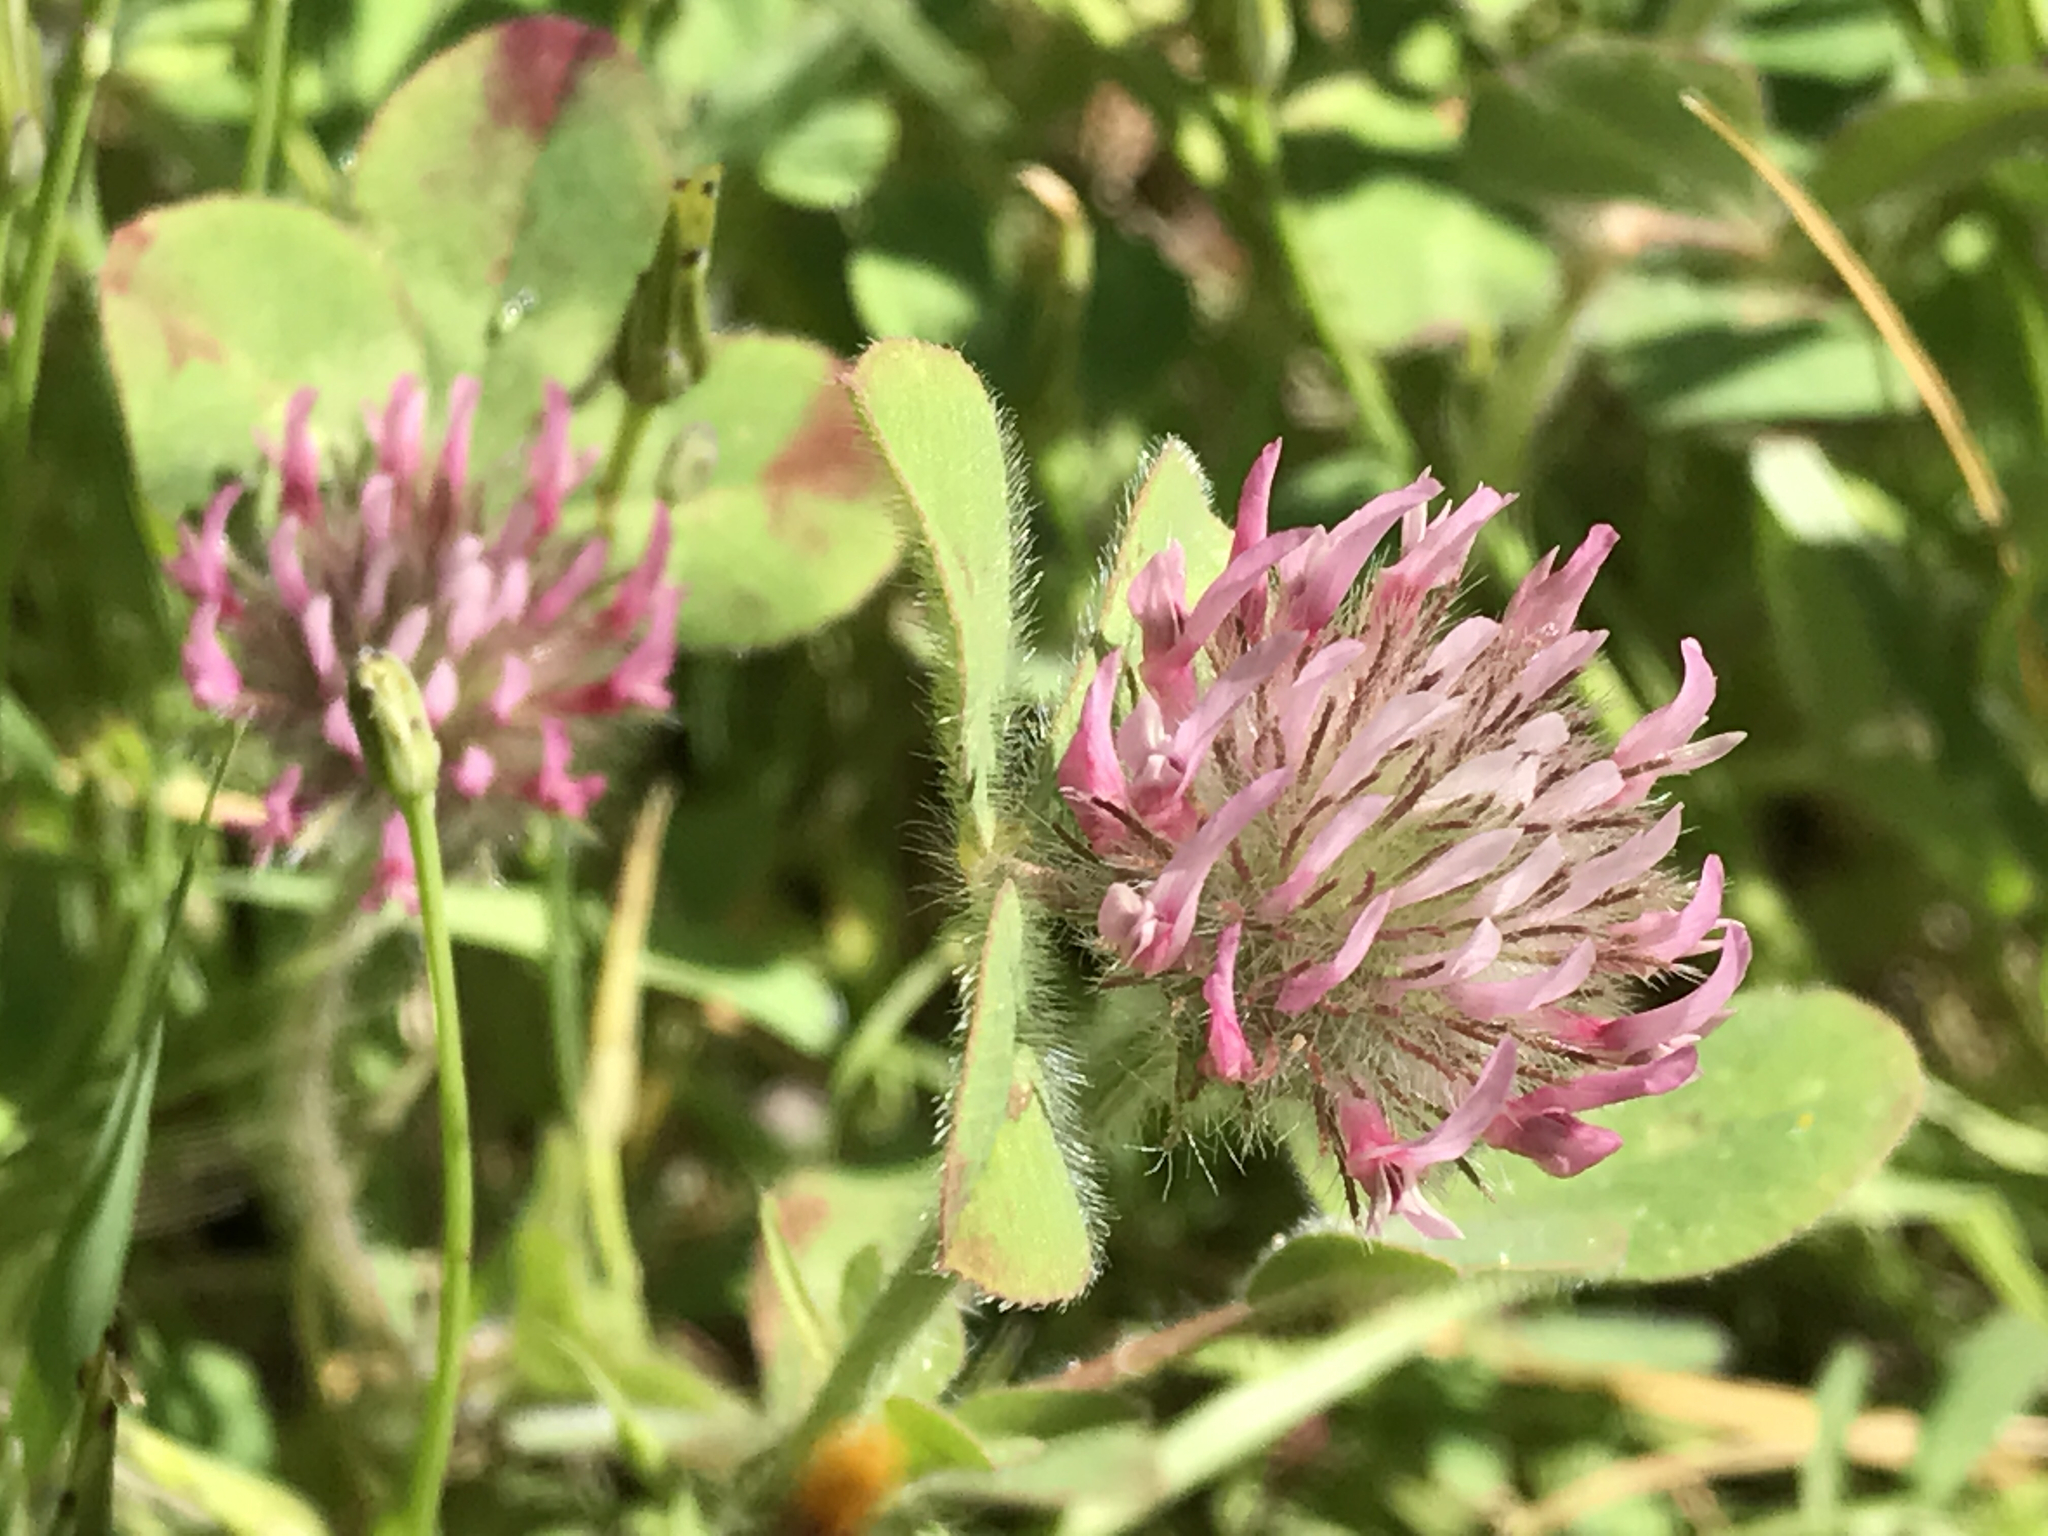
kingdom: Plantae
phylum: Tracheophyta
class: Magnoliopsida
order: Fabales
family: Fabaceae
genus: Trifolium
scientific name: Trifolium hirtum
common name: Rose clover
